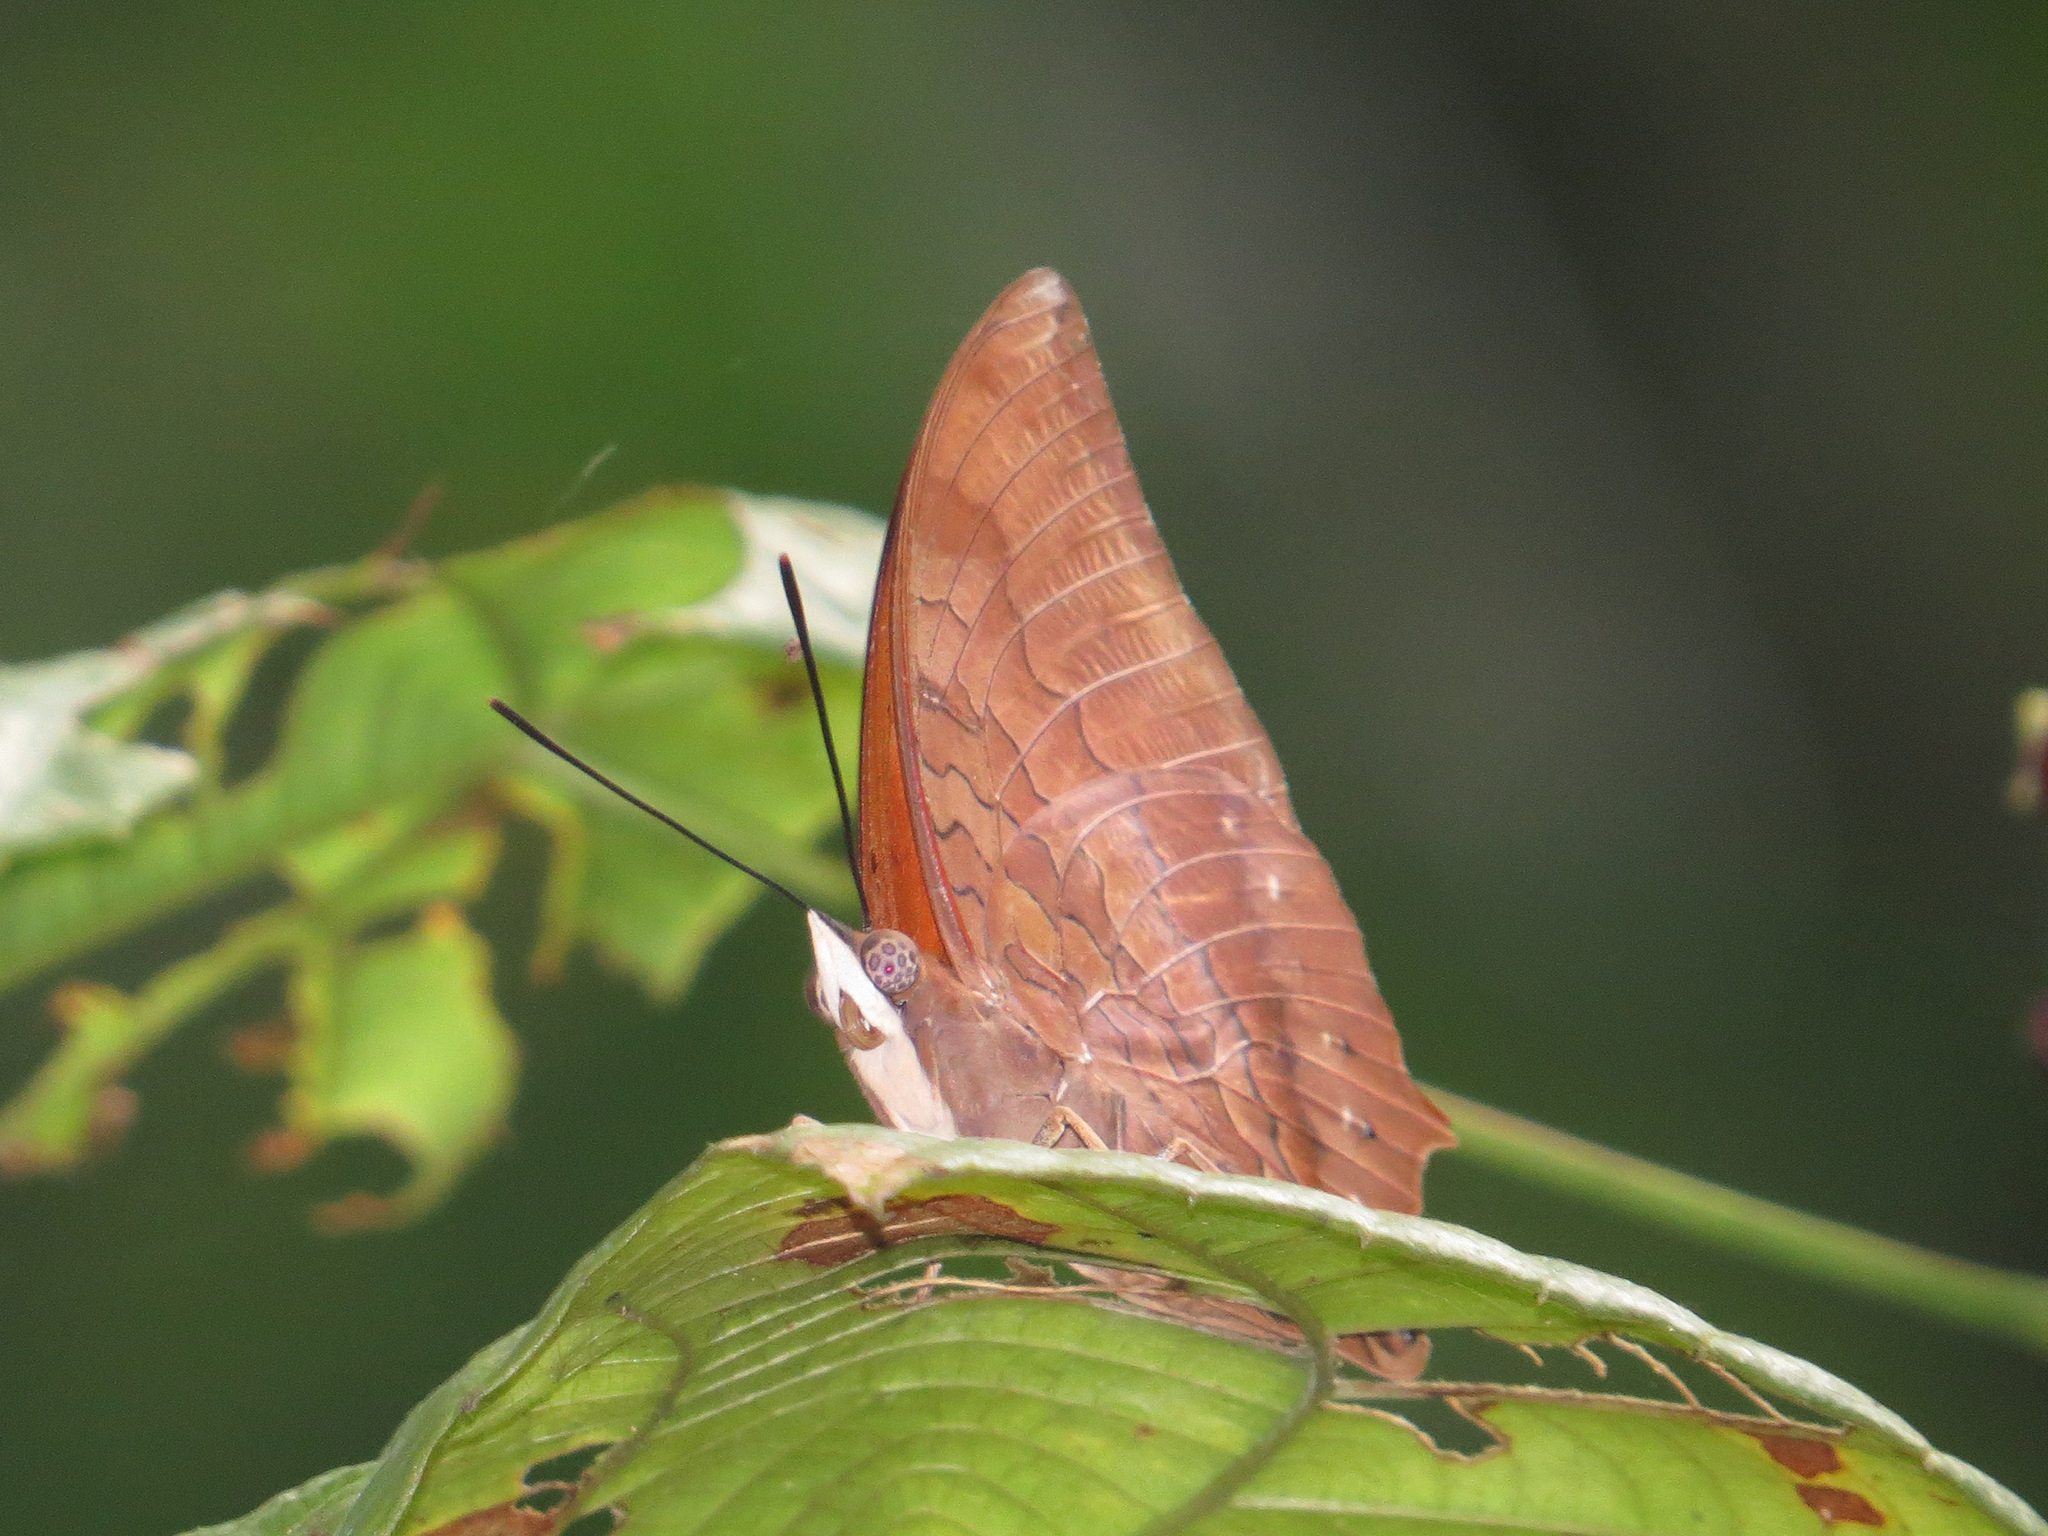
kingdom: Animalia
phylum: Arthropoda
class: Insecta
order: Lepidoptera
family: Nymphalidae
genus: Charaxes
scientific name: Charaxes bernardus
